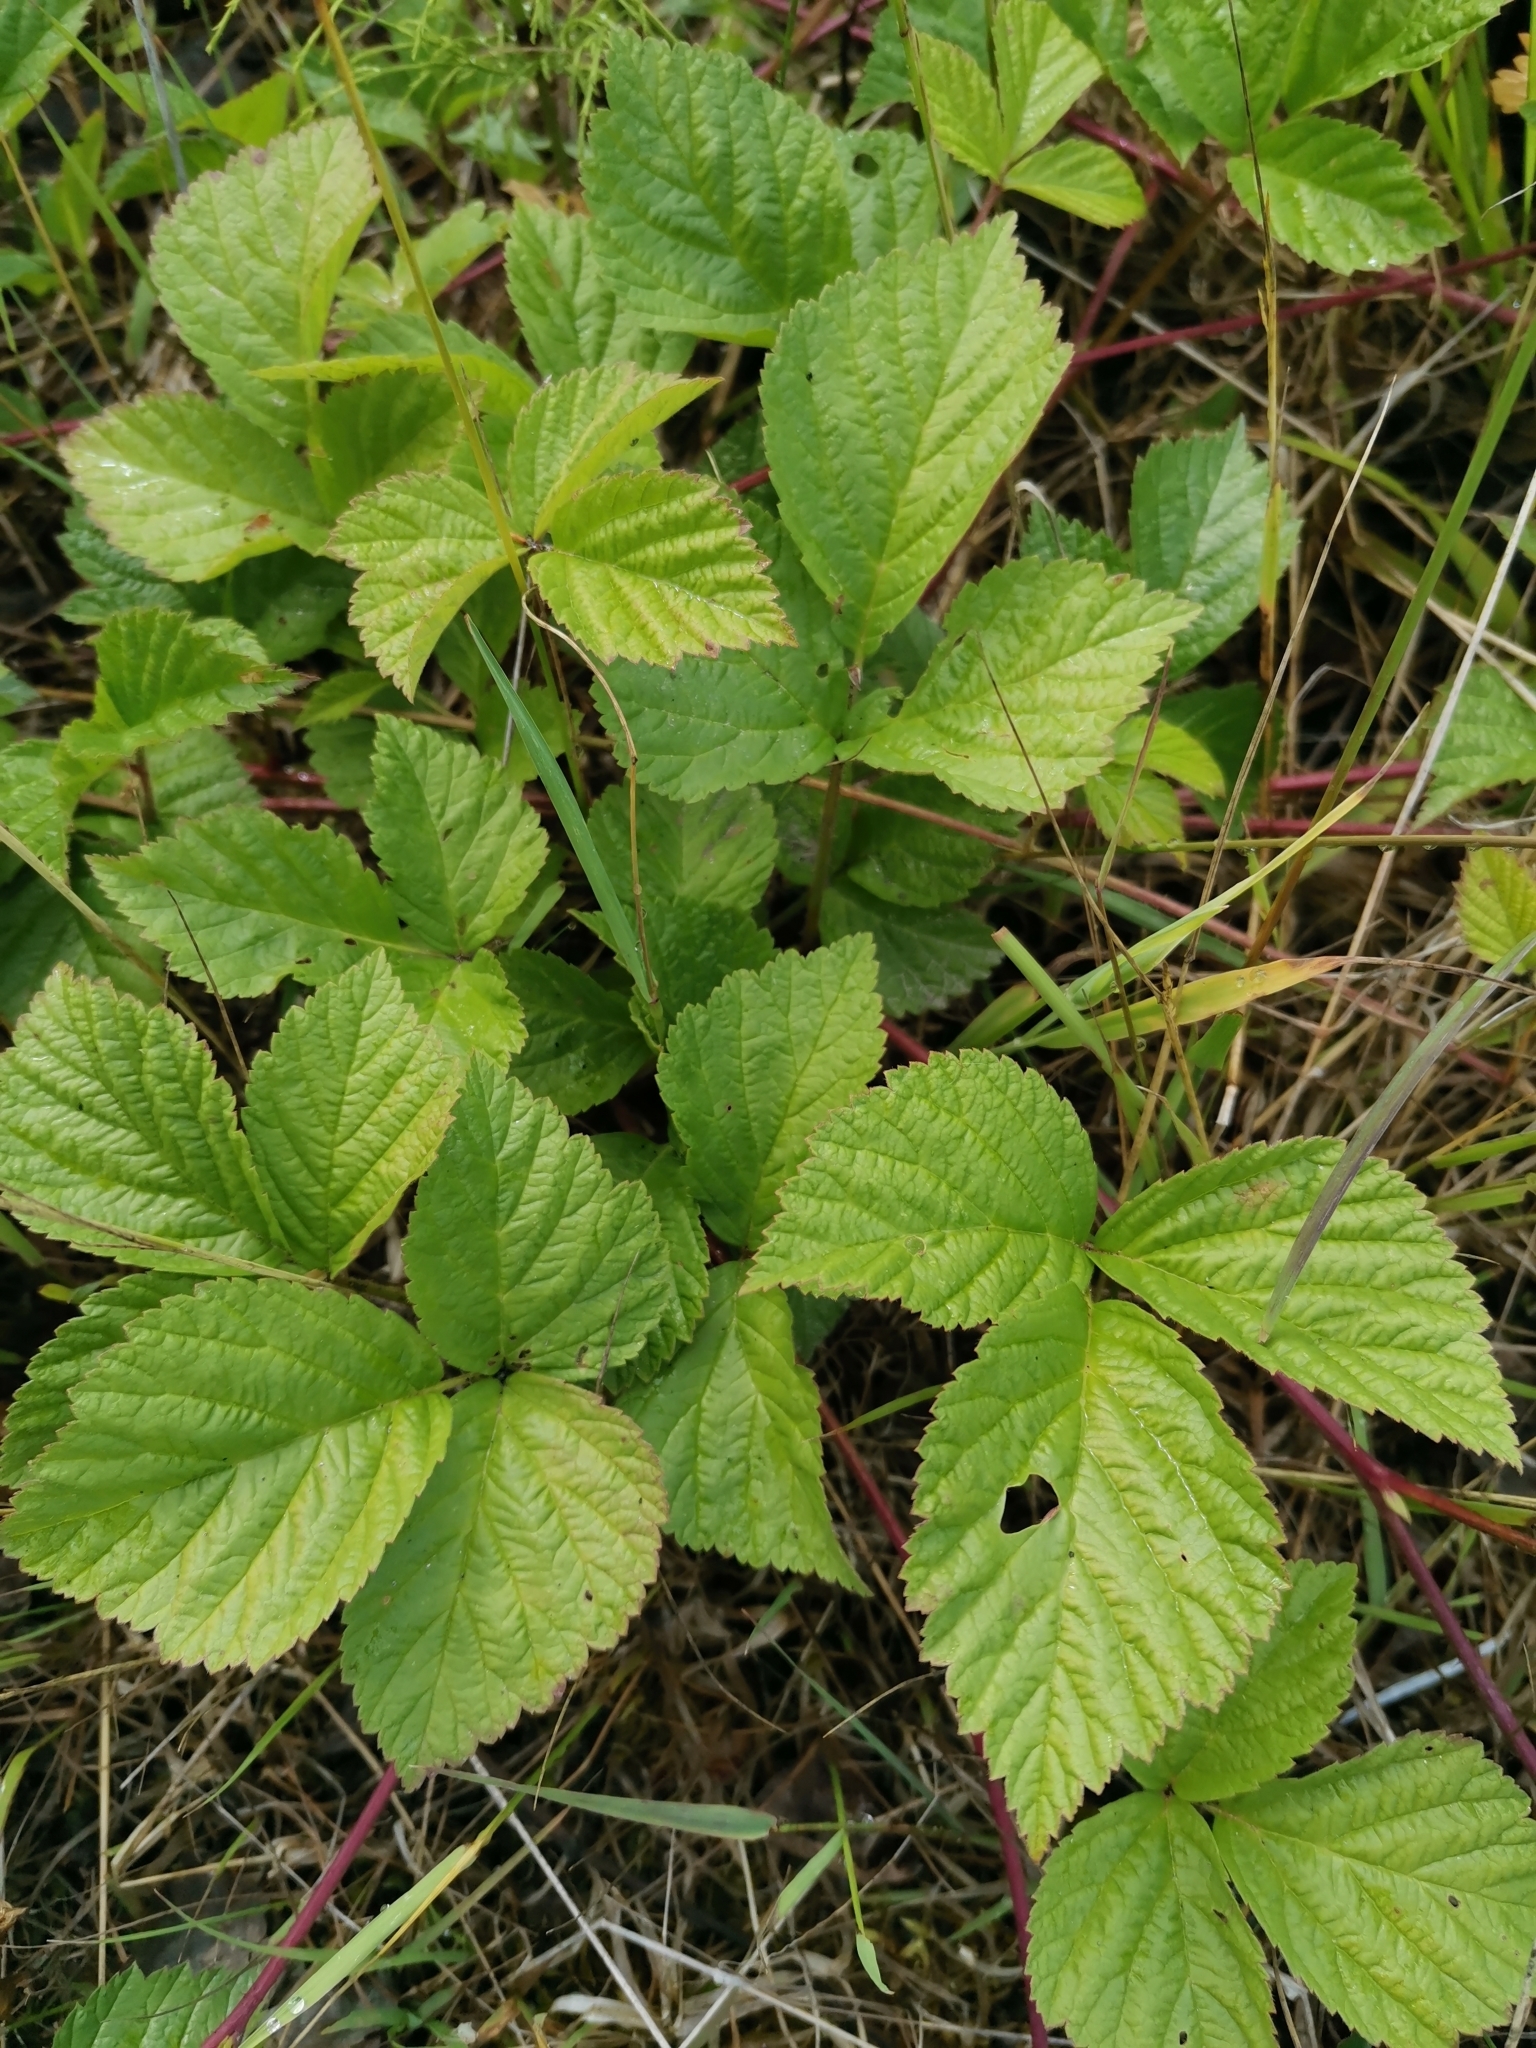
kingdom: Plantae
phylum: Tracheophyta
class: Magnoliopsida
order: Rosales
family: Rosaceae
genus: Rubus
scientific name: Rubus saxatilis
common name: Stone bramble
